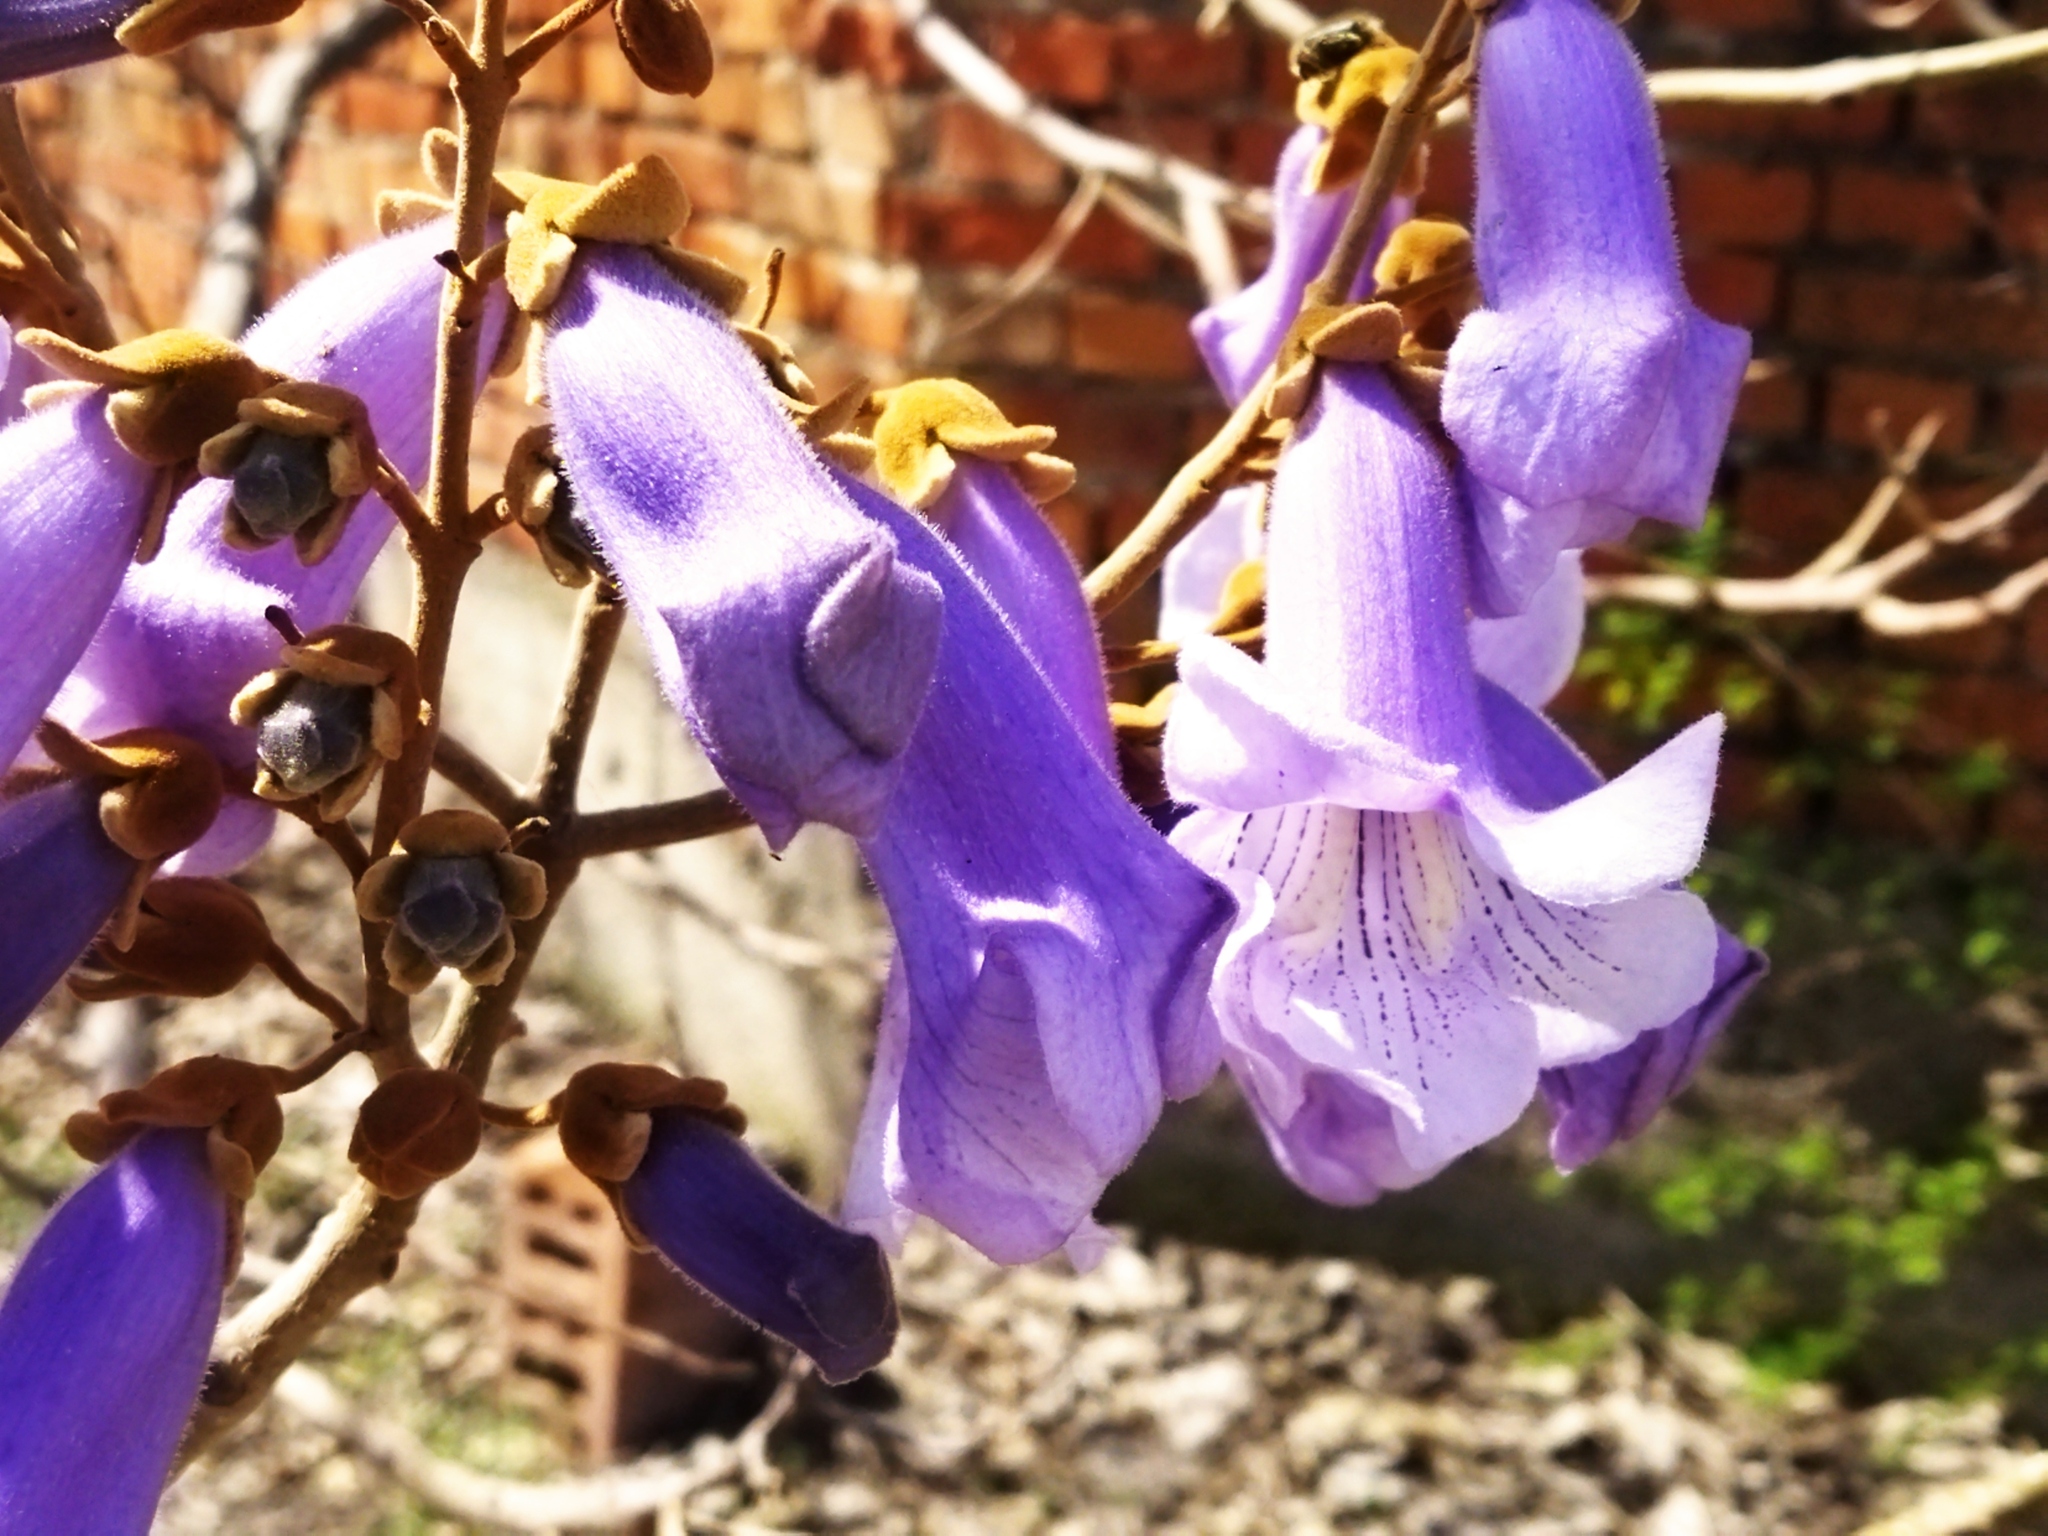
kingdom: Plantae
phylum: Tracheophyta
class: Magnoliopsida
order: Lamiales
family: Paulowniaceae
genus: Paulownia
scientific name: Paulownia tomentosa
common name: Foxglove-tree
